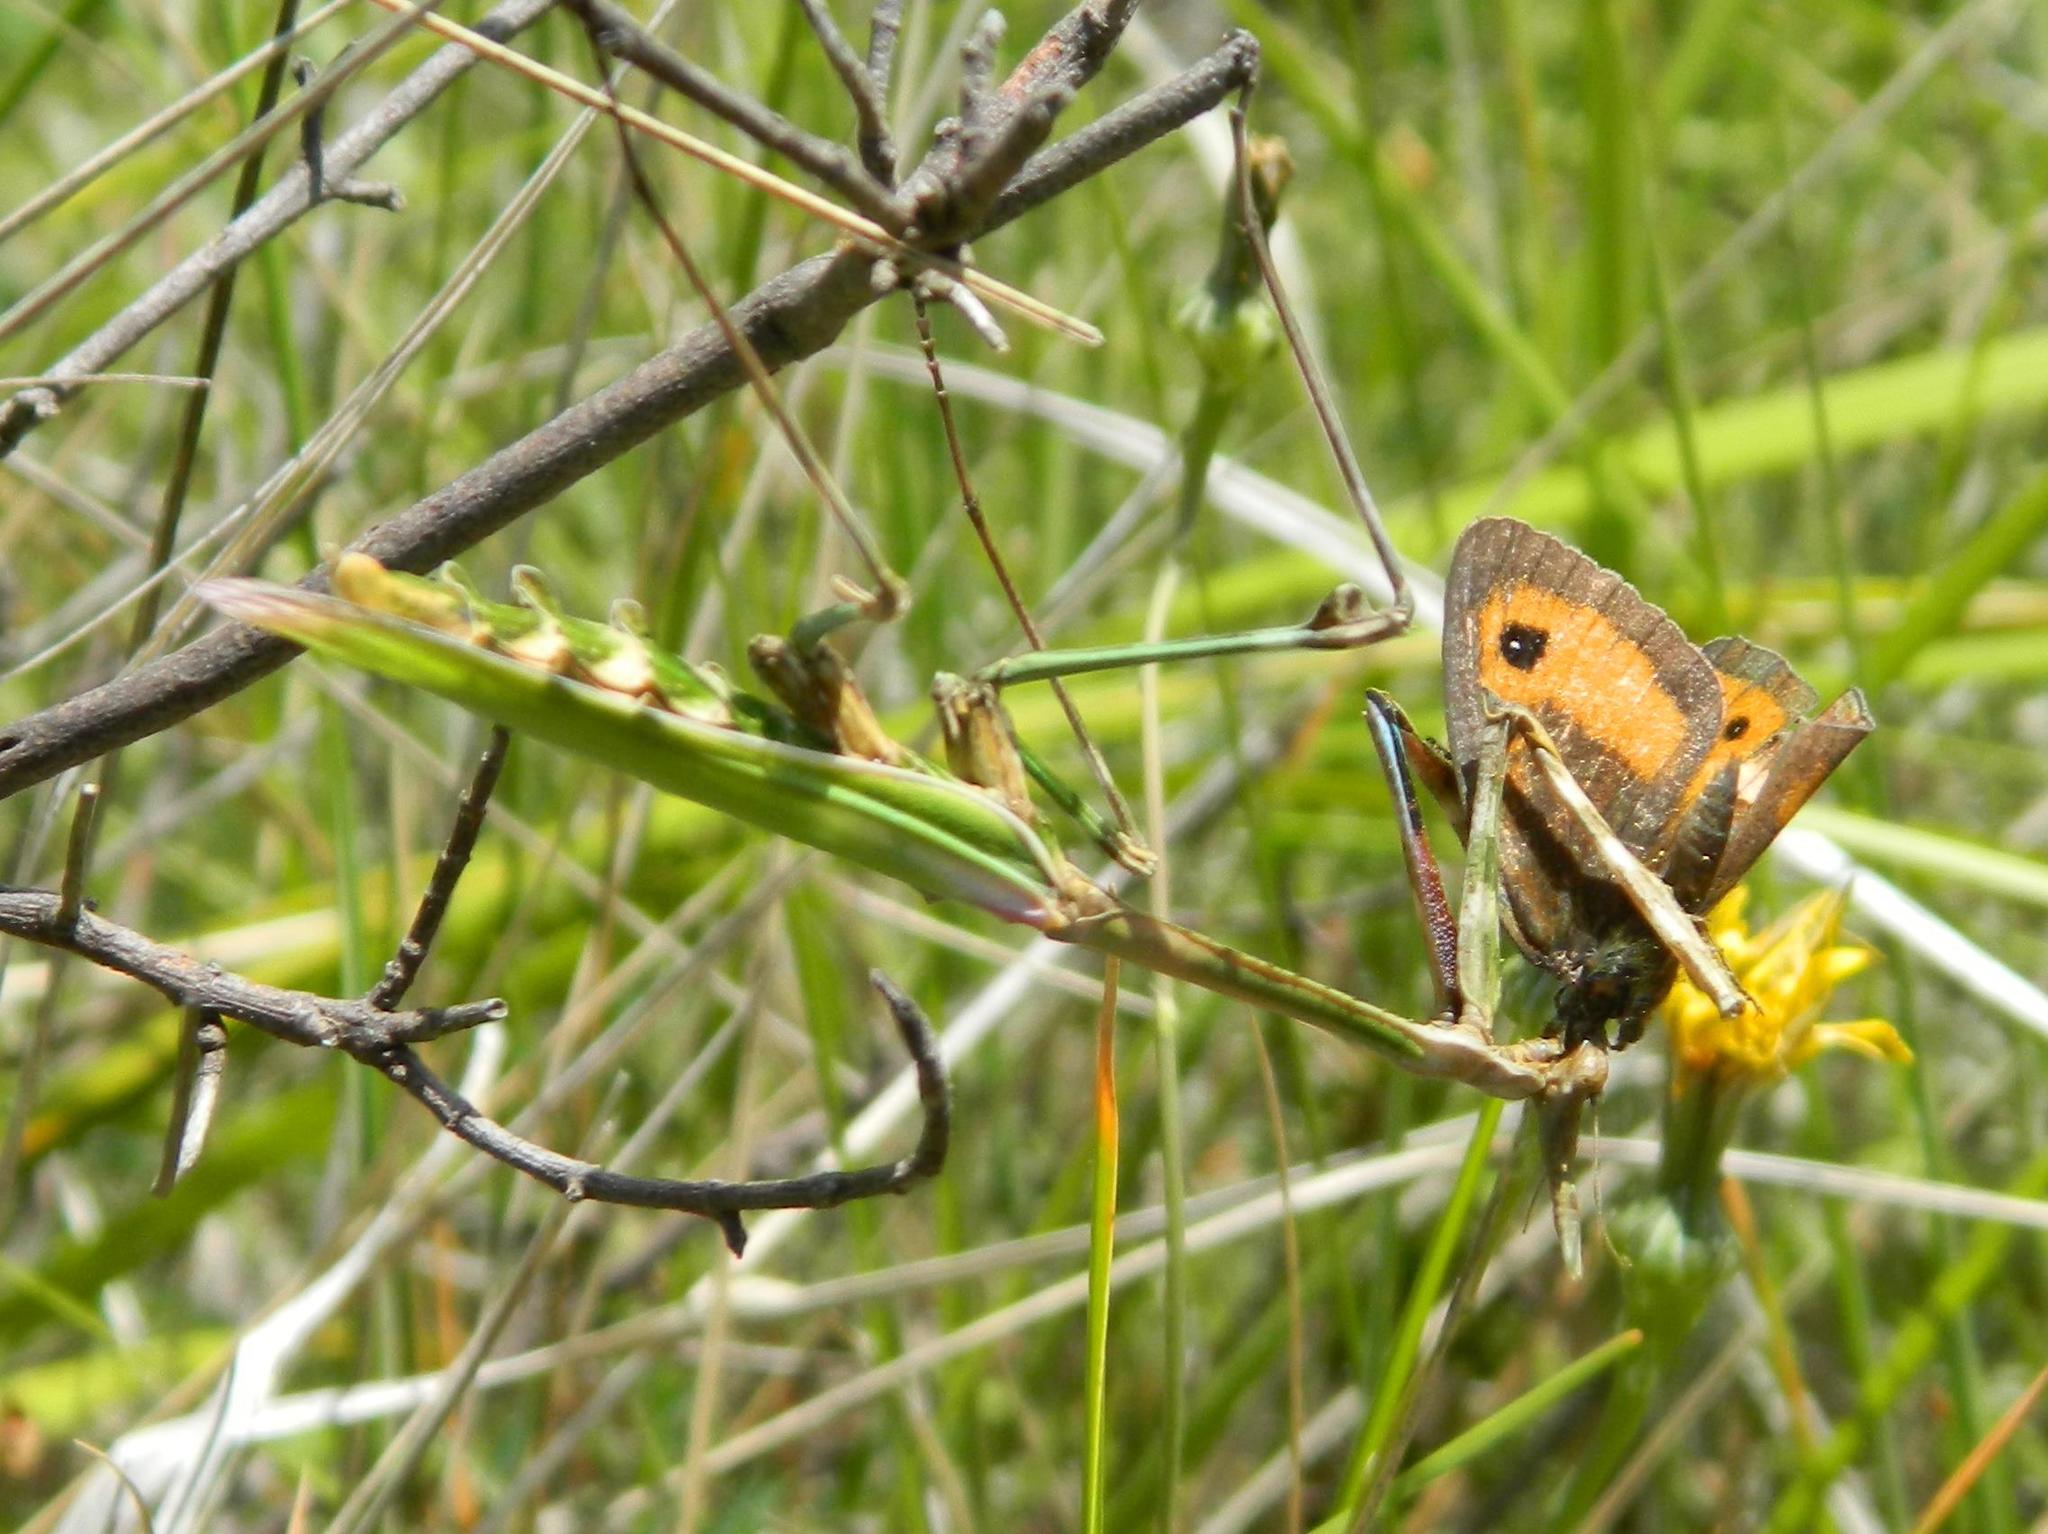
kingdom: Animalia
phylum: Arthropoda
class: Insecta
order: Mantodea
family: Empusidae
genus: Empusa
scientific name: Empusa pennata
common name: Conehead mantis
